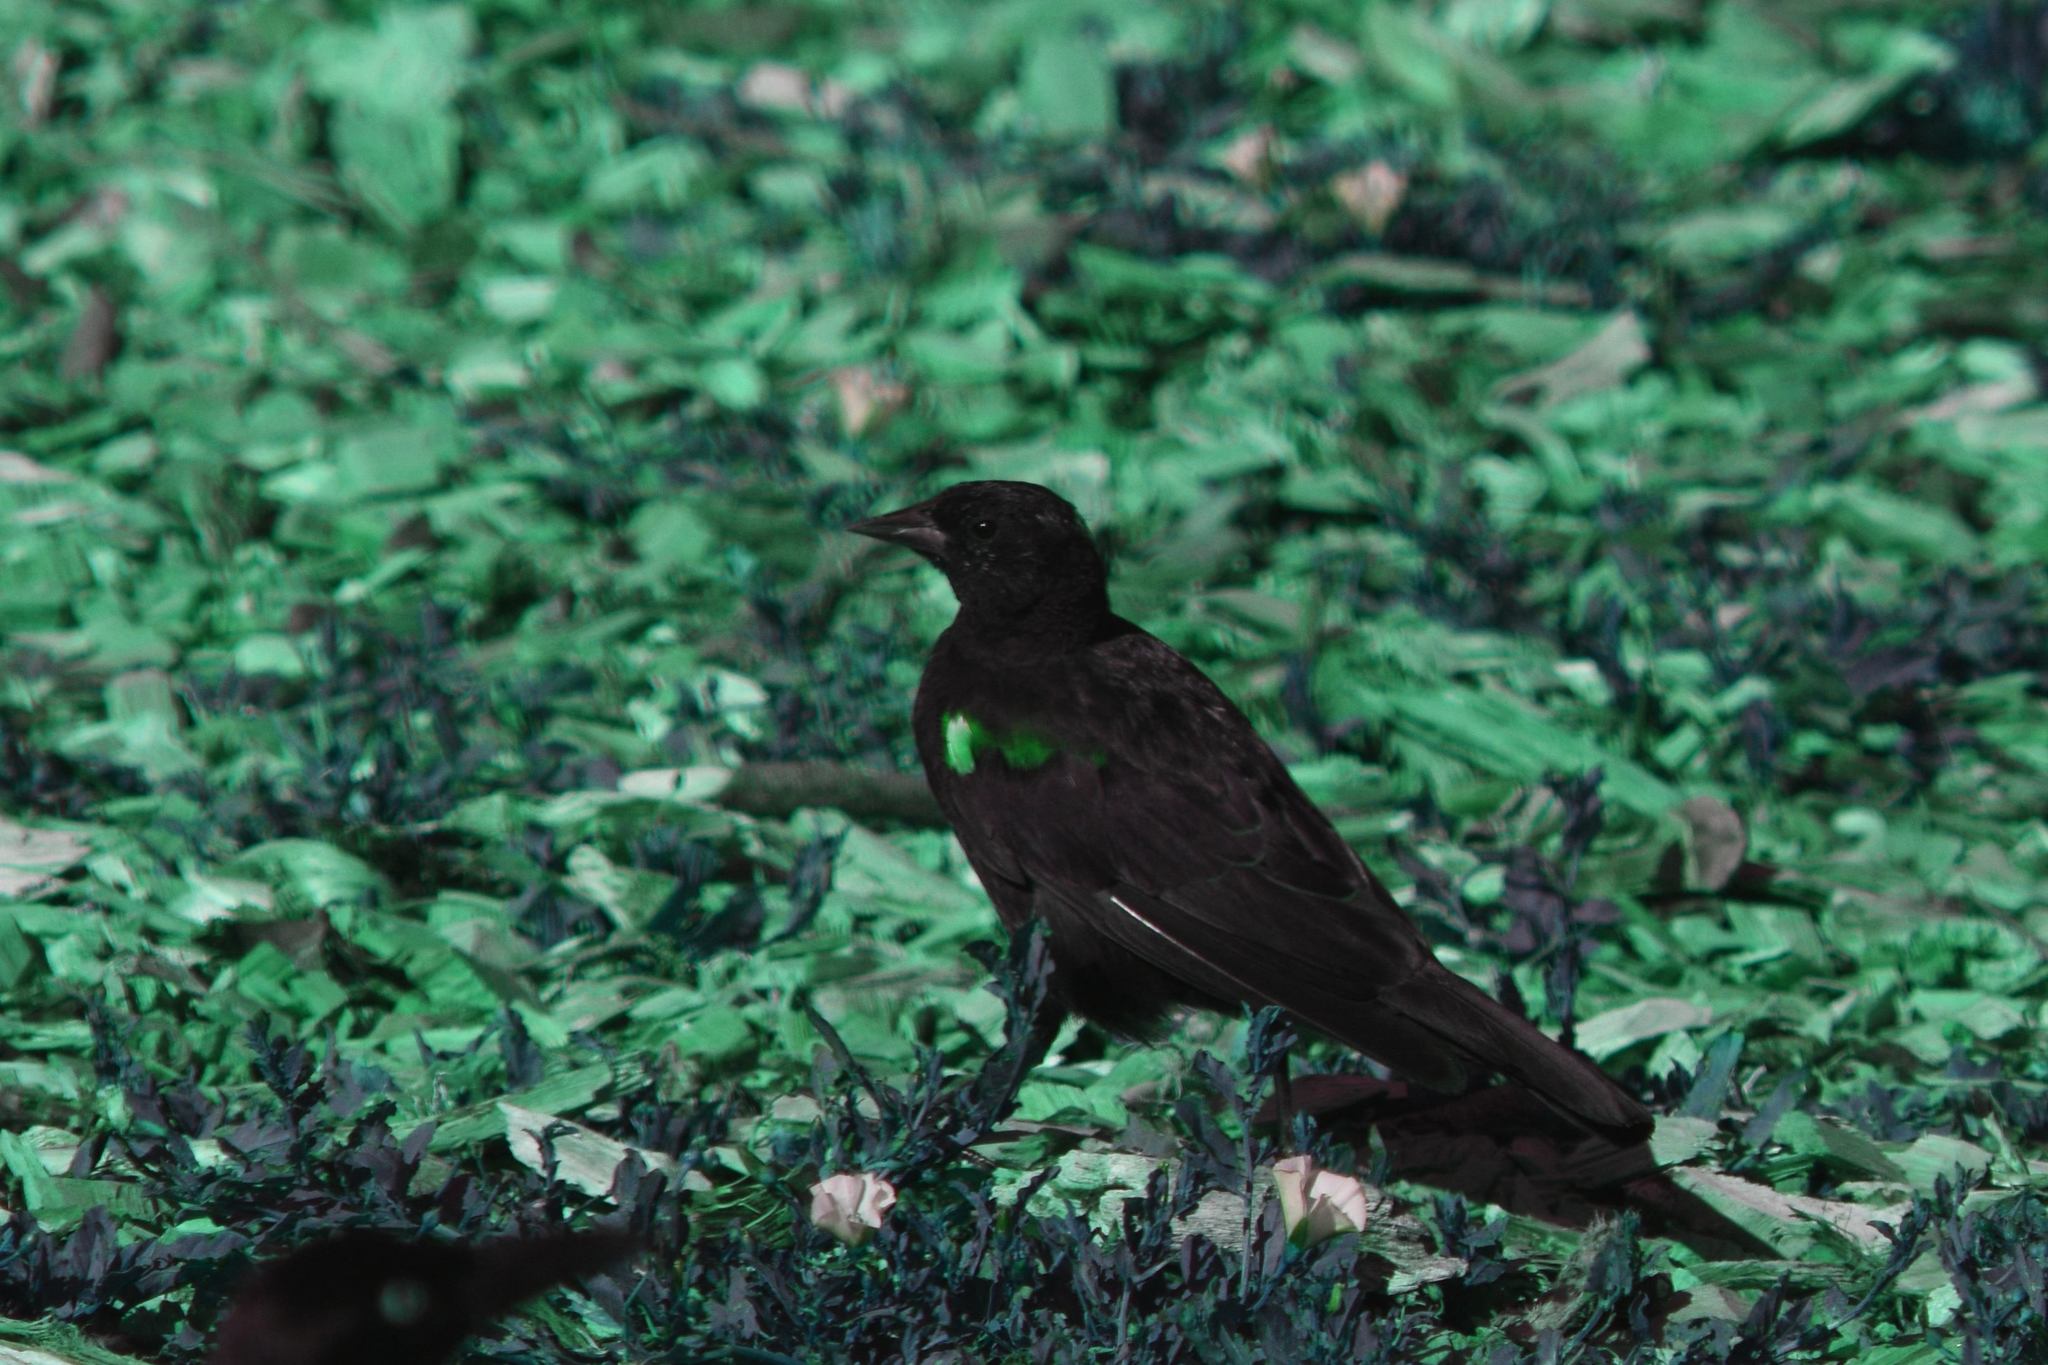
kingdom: Animalia
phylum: Chordata
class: Aves
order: Passeriformes
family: Icteridae
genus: Agelaius
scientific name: Agelaius phoeniceus
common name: Red-winged blackbird
